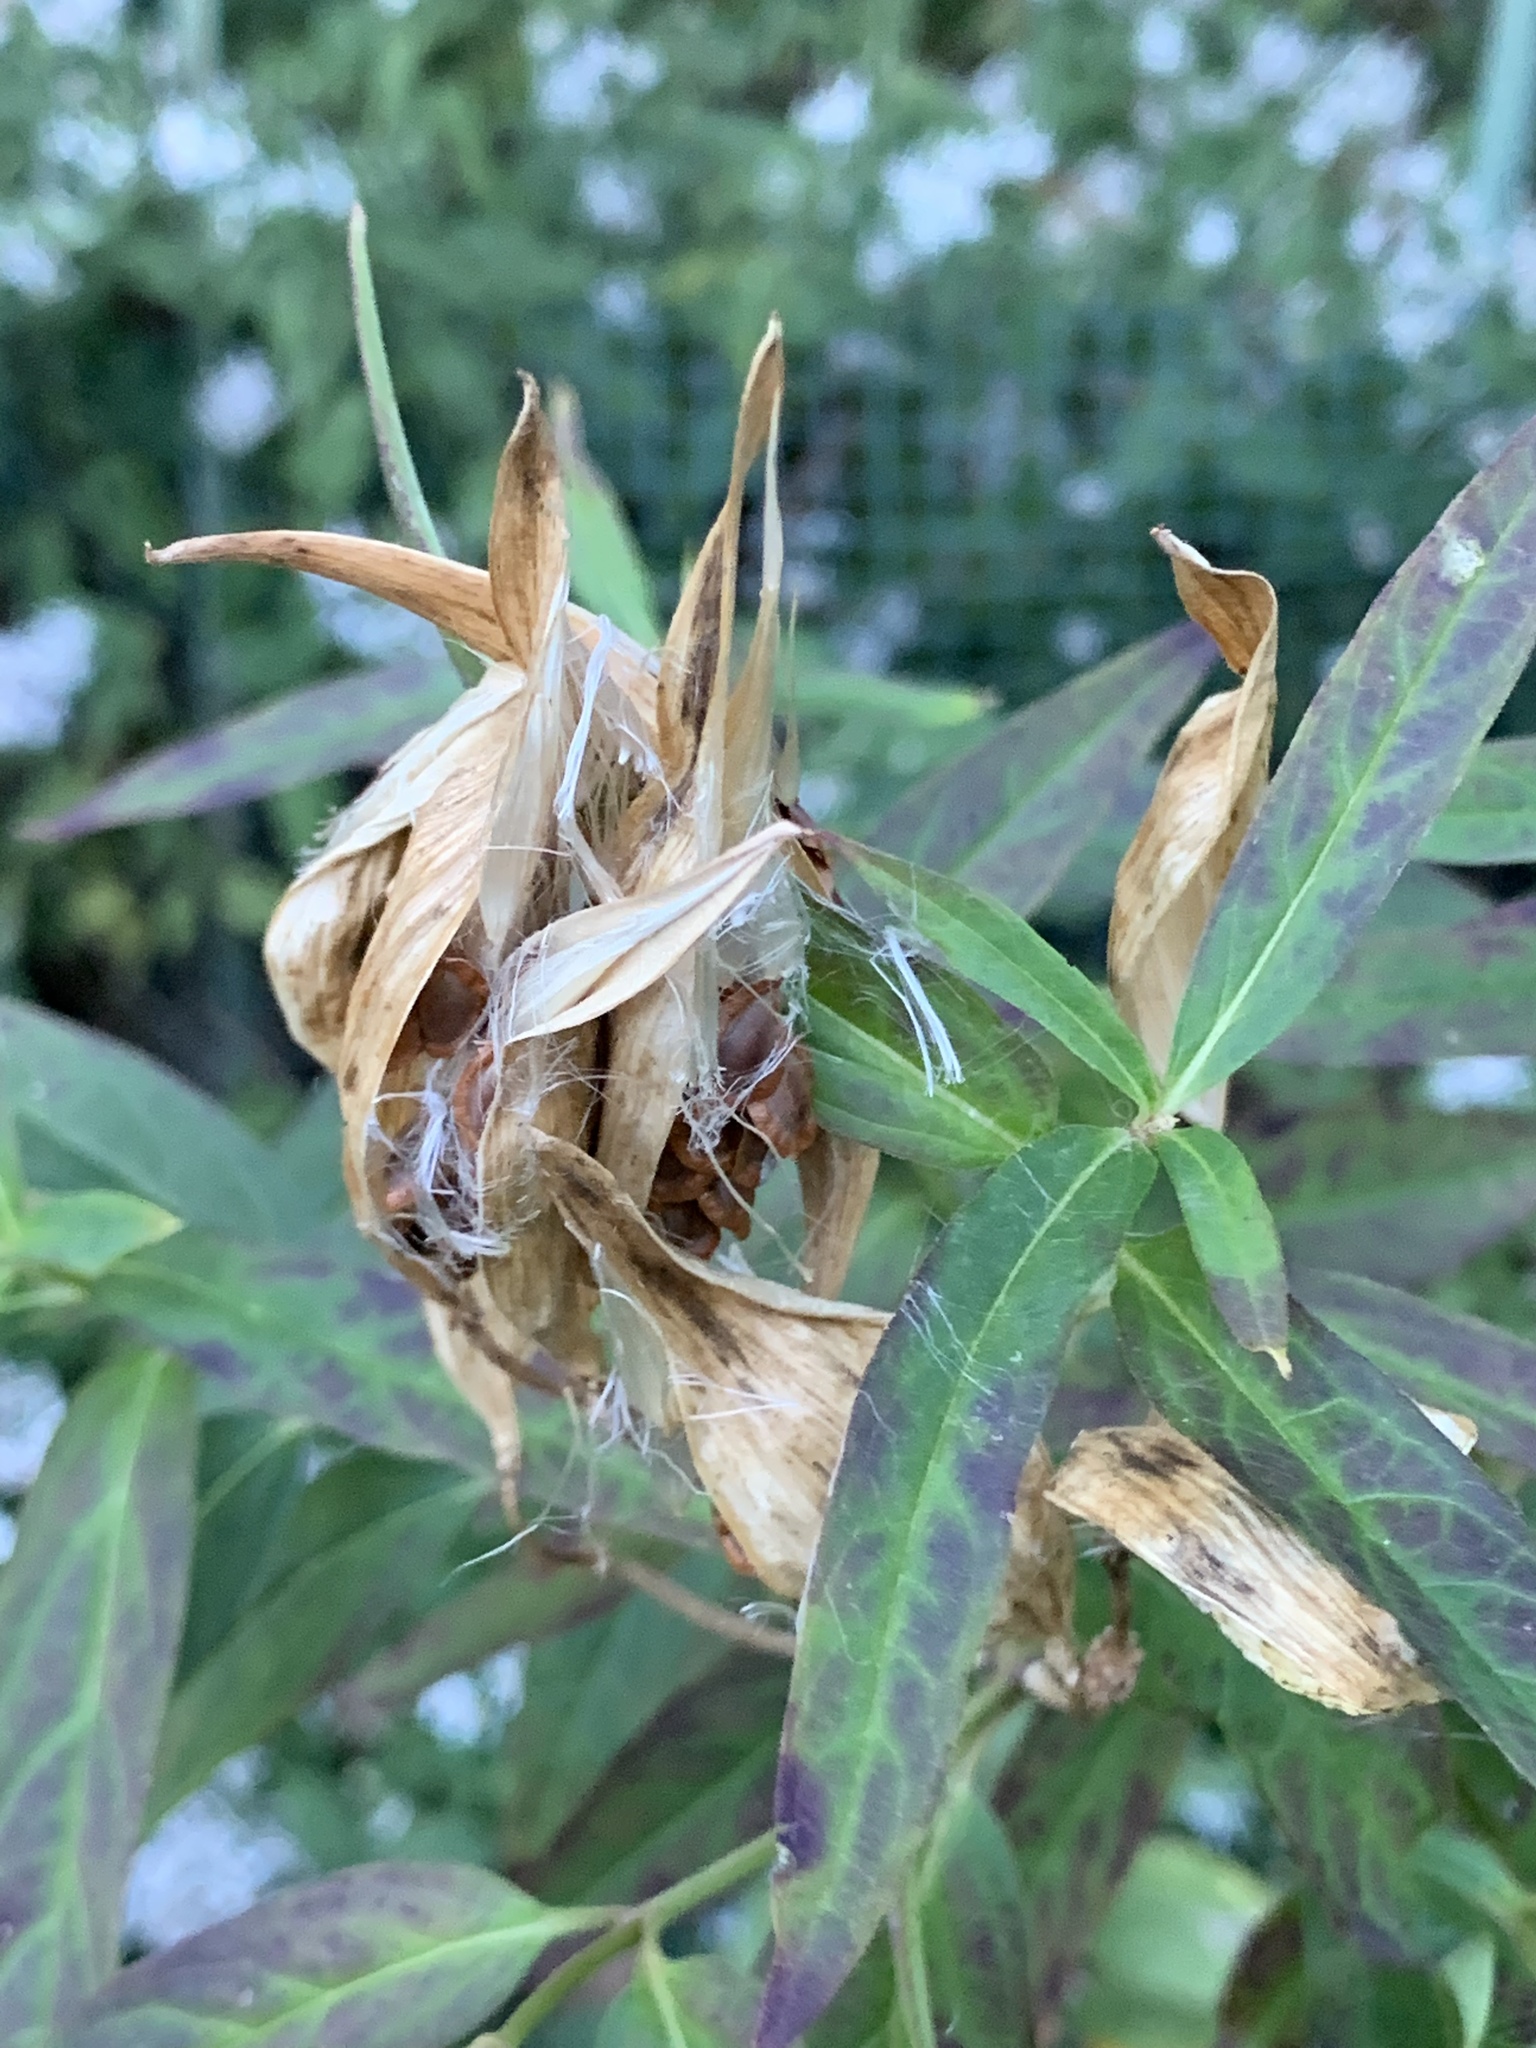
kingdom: Plantae
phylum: Tracheophyta
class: Magnoliopsida
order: Gentianales
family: Apocynaceae
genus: Asclepias
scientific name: Asclepias incarnata
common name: Swamp milkweed
